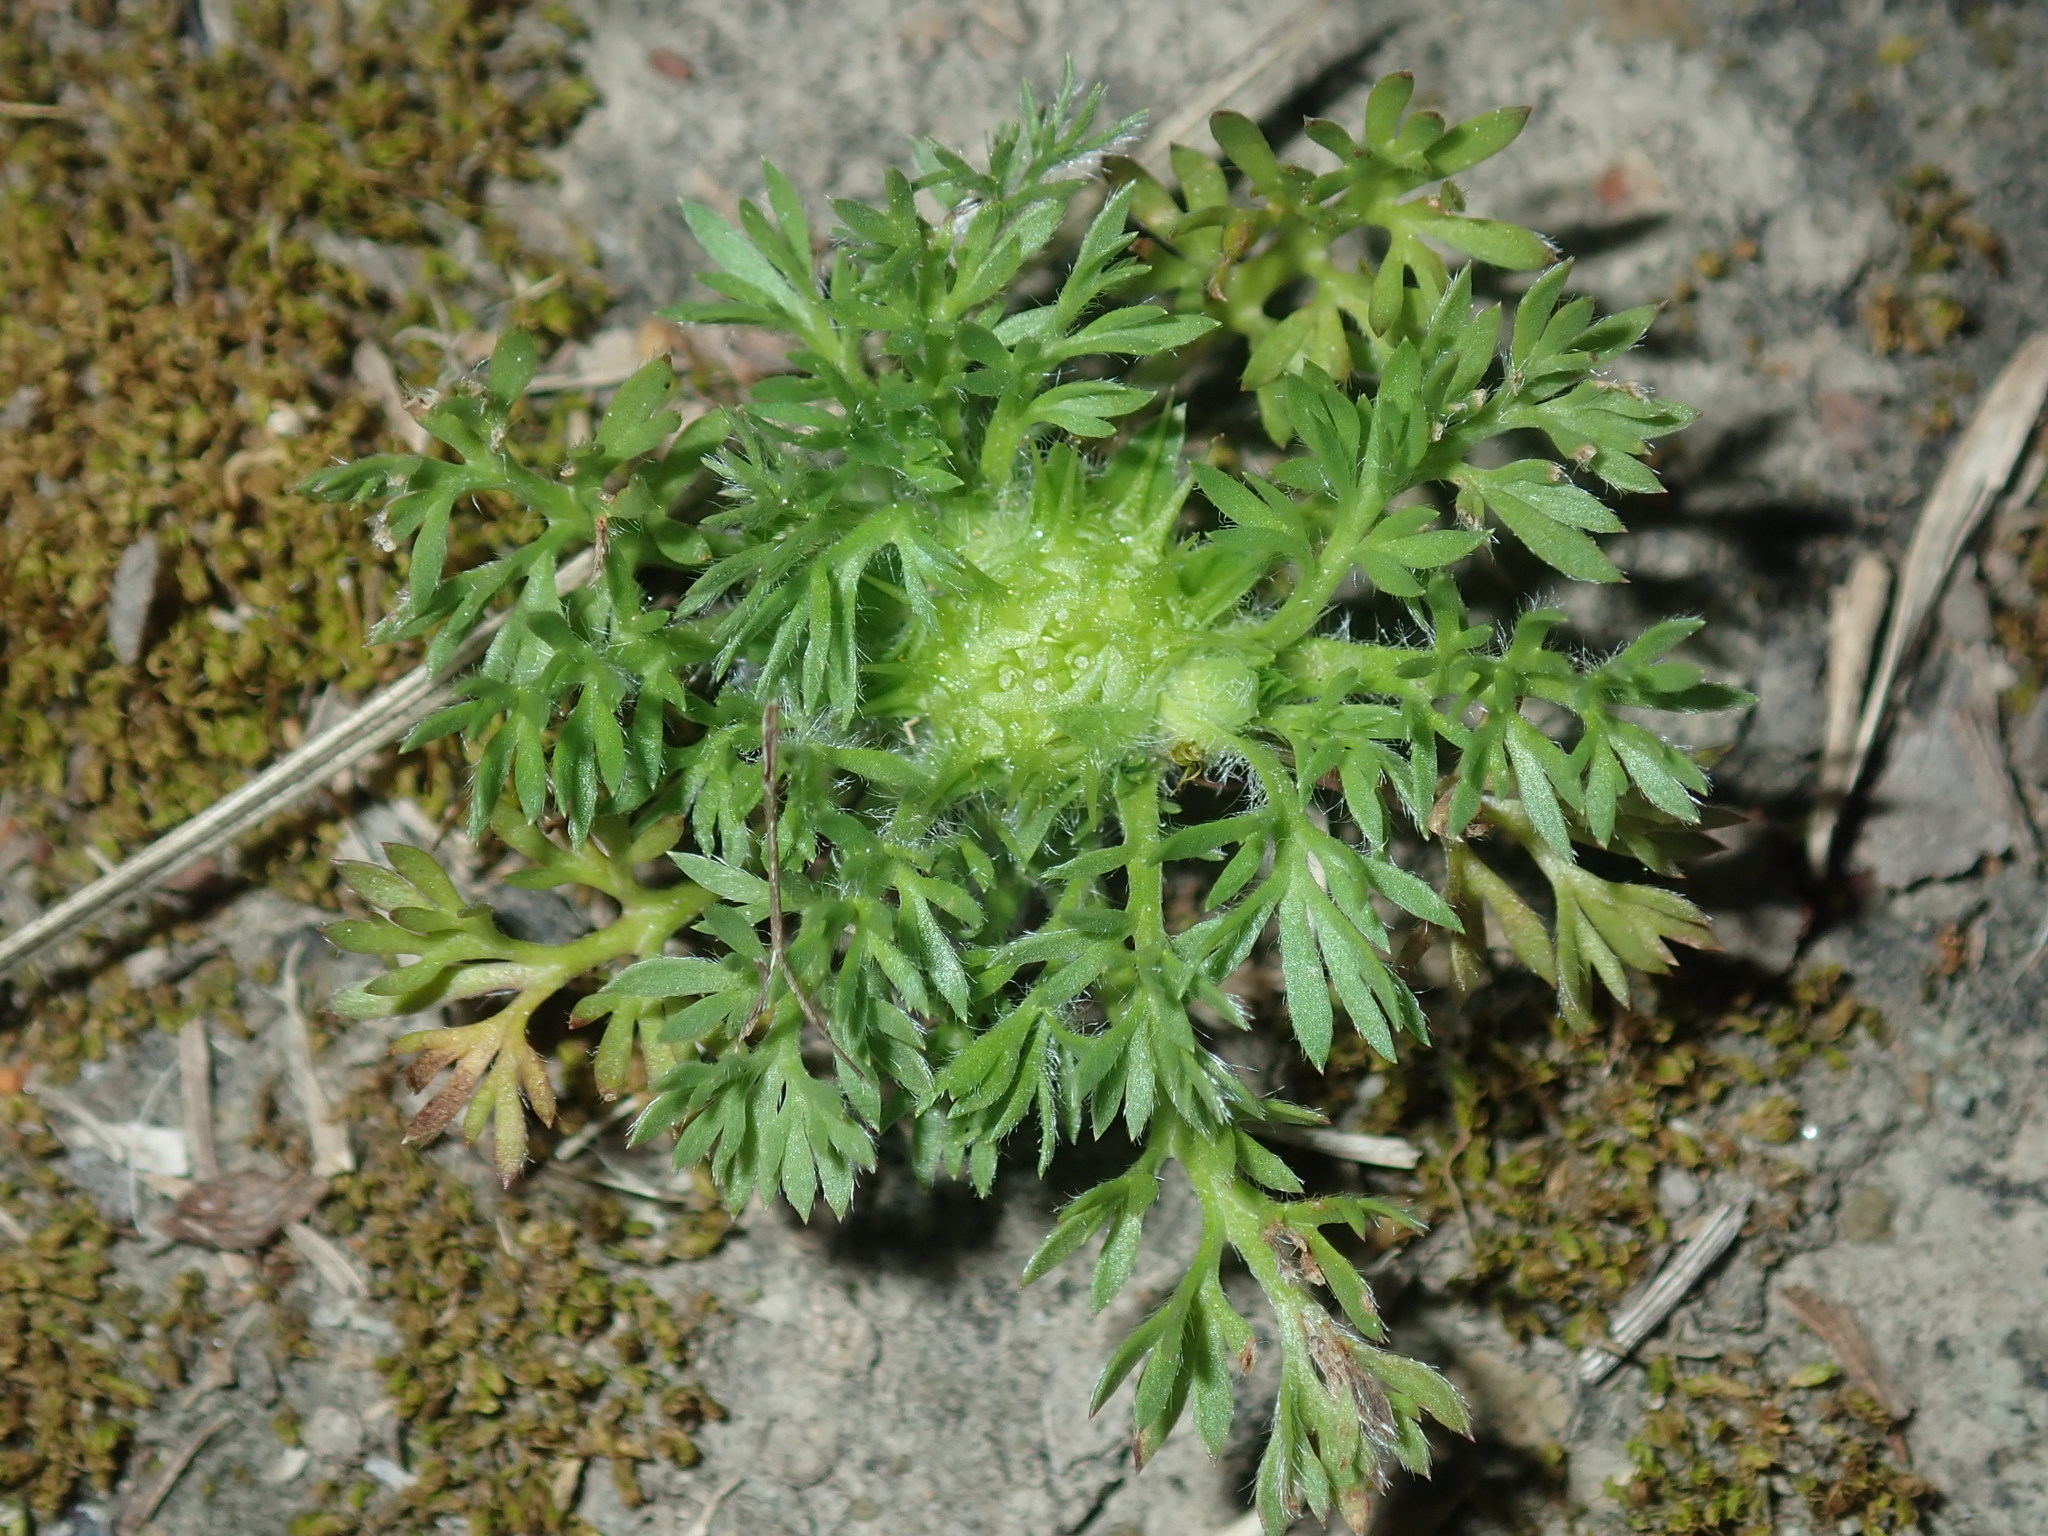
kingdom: Plantae
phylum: Tracheophyta
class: Magnoliopsida
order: Asterales
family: Asteraceae
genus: Soliva
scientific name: Soliva sessilis
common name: Field burrweed
